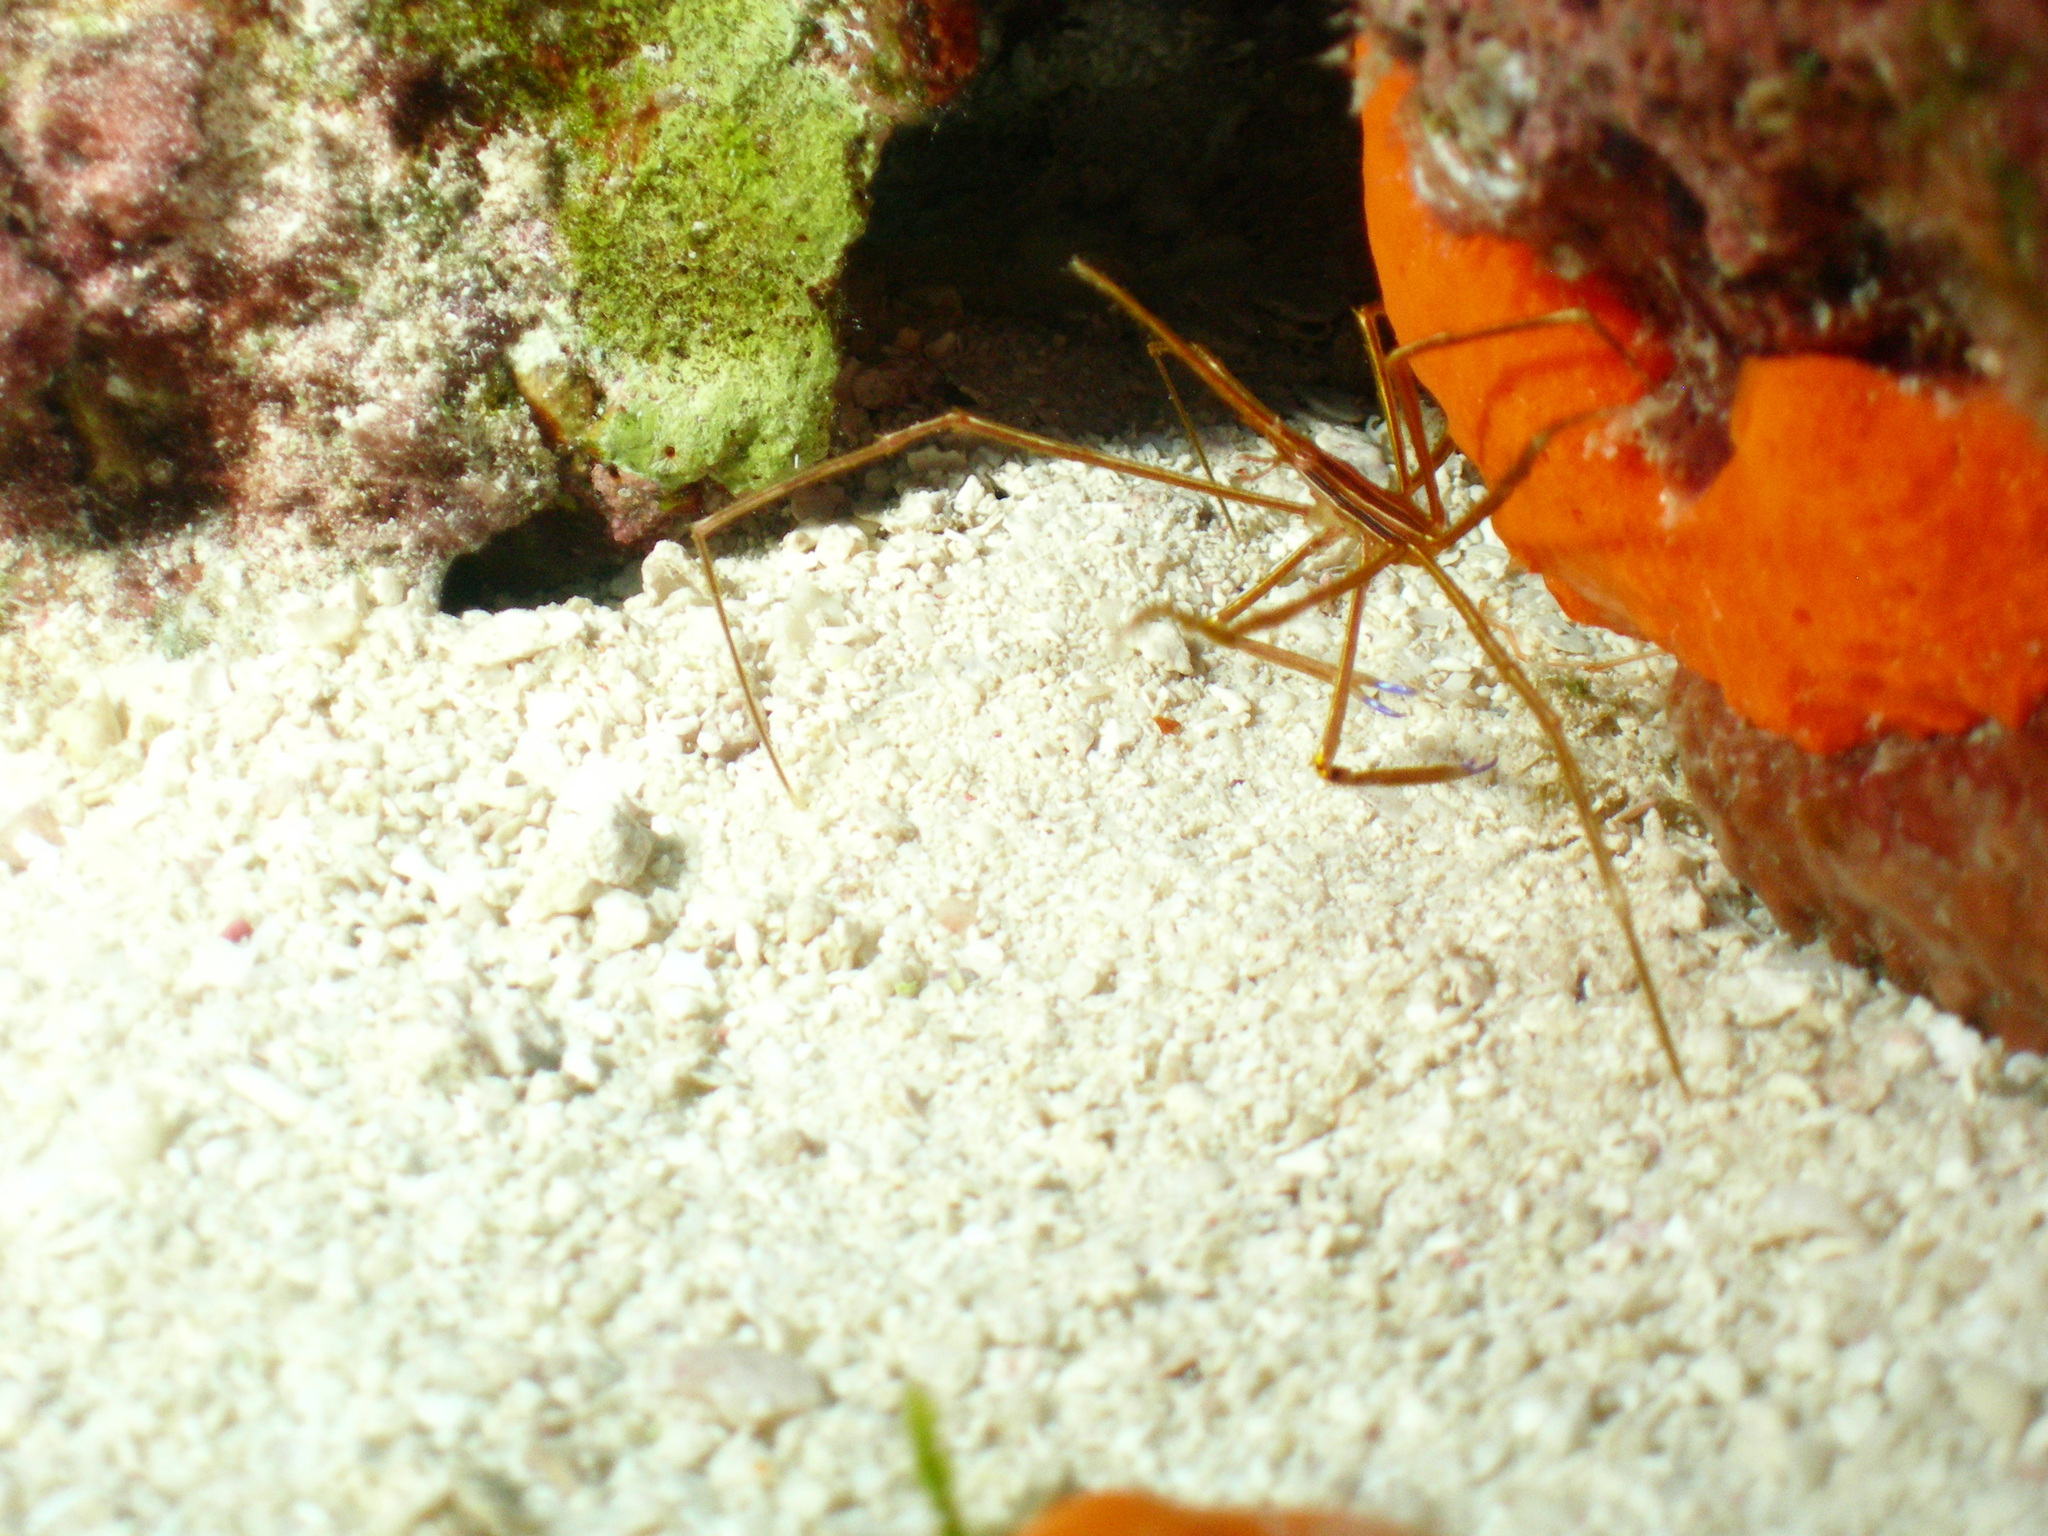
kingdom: Animalia
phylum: Arthropoda
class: Malacostraca
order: Decapoda
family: Inachoididae
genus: Stenorhynchus
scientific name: Stenorhynchus seticornis
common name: Arrow crab
